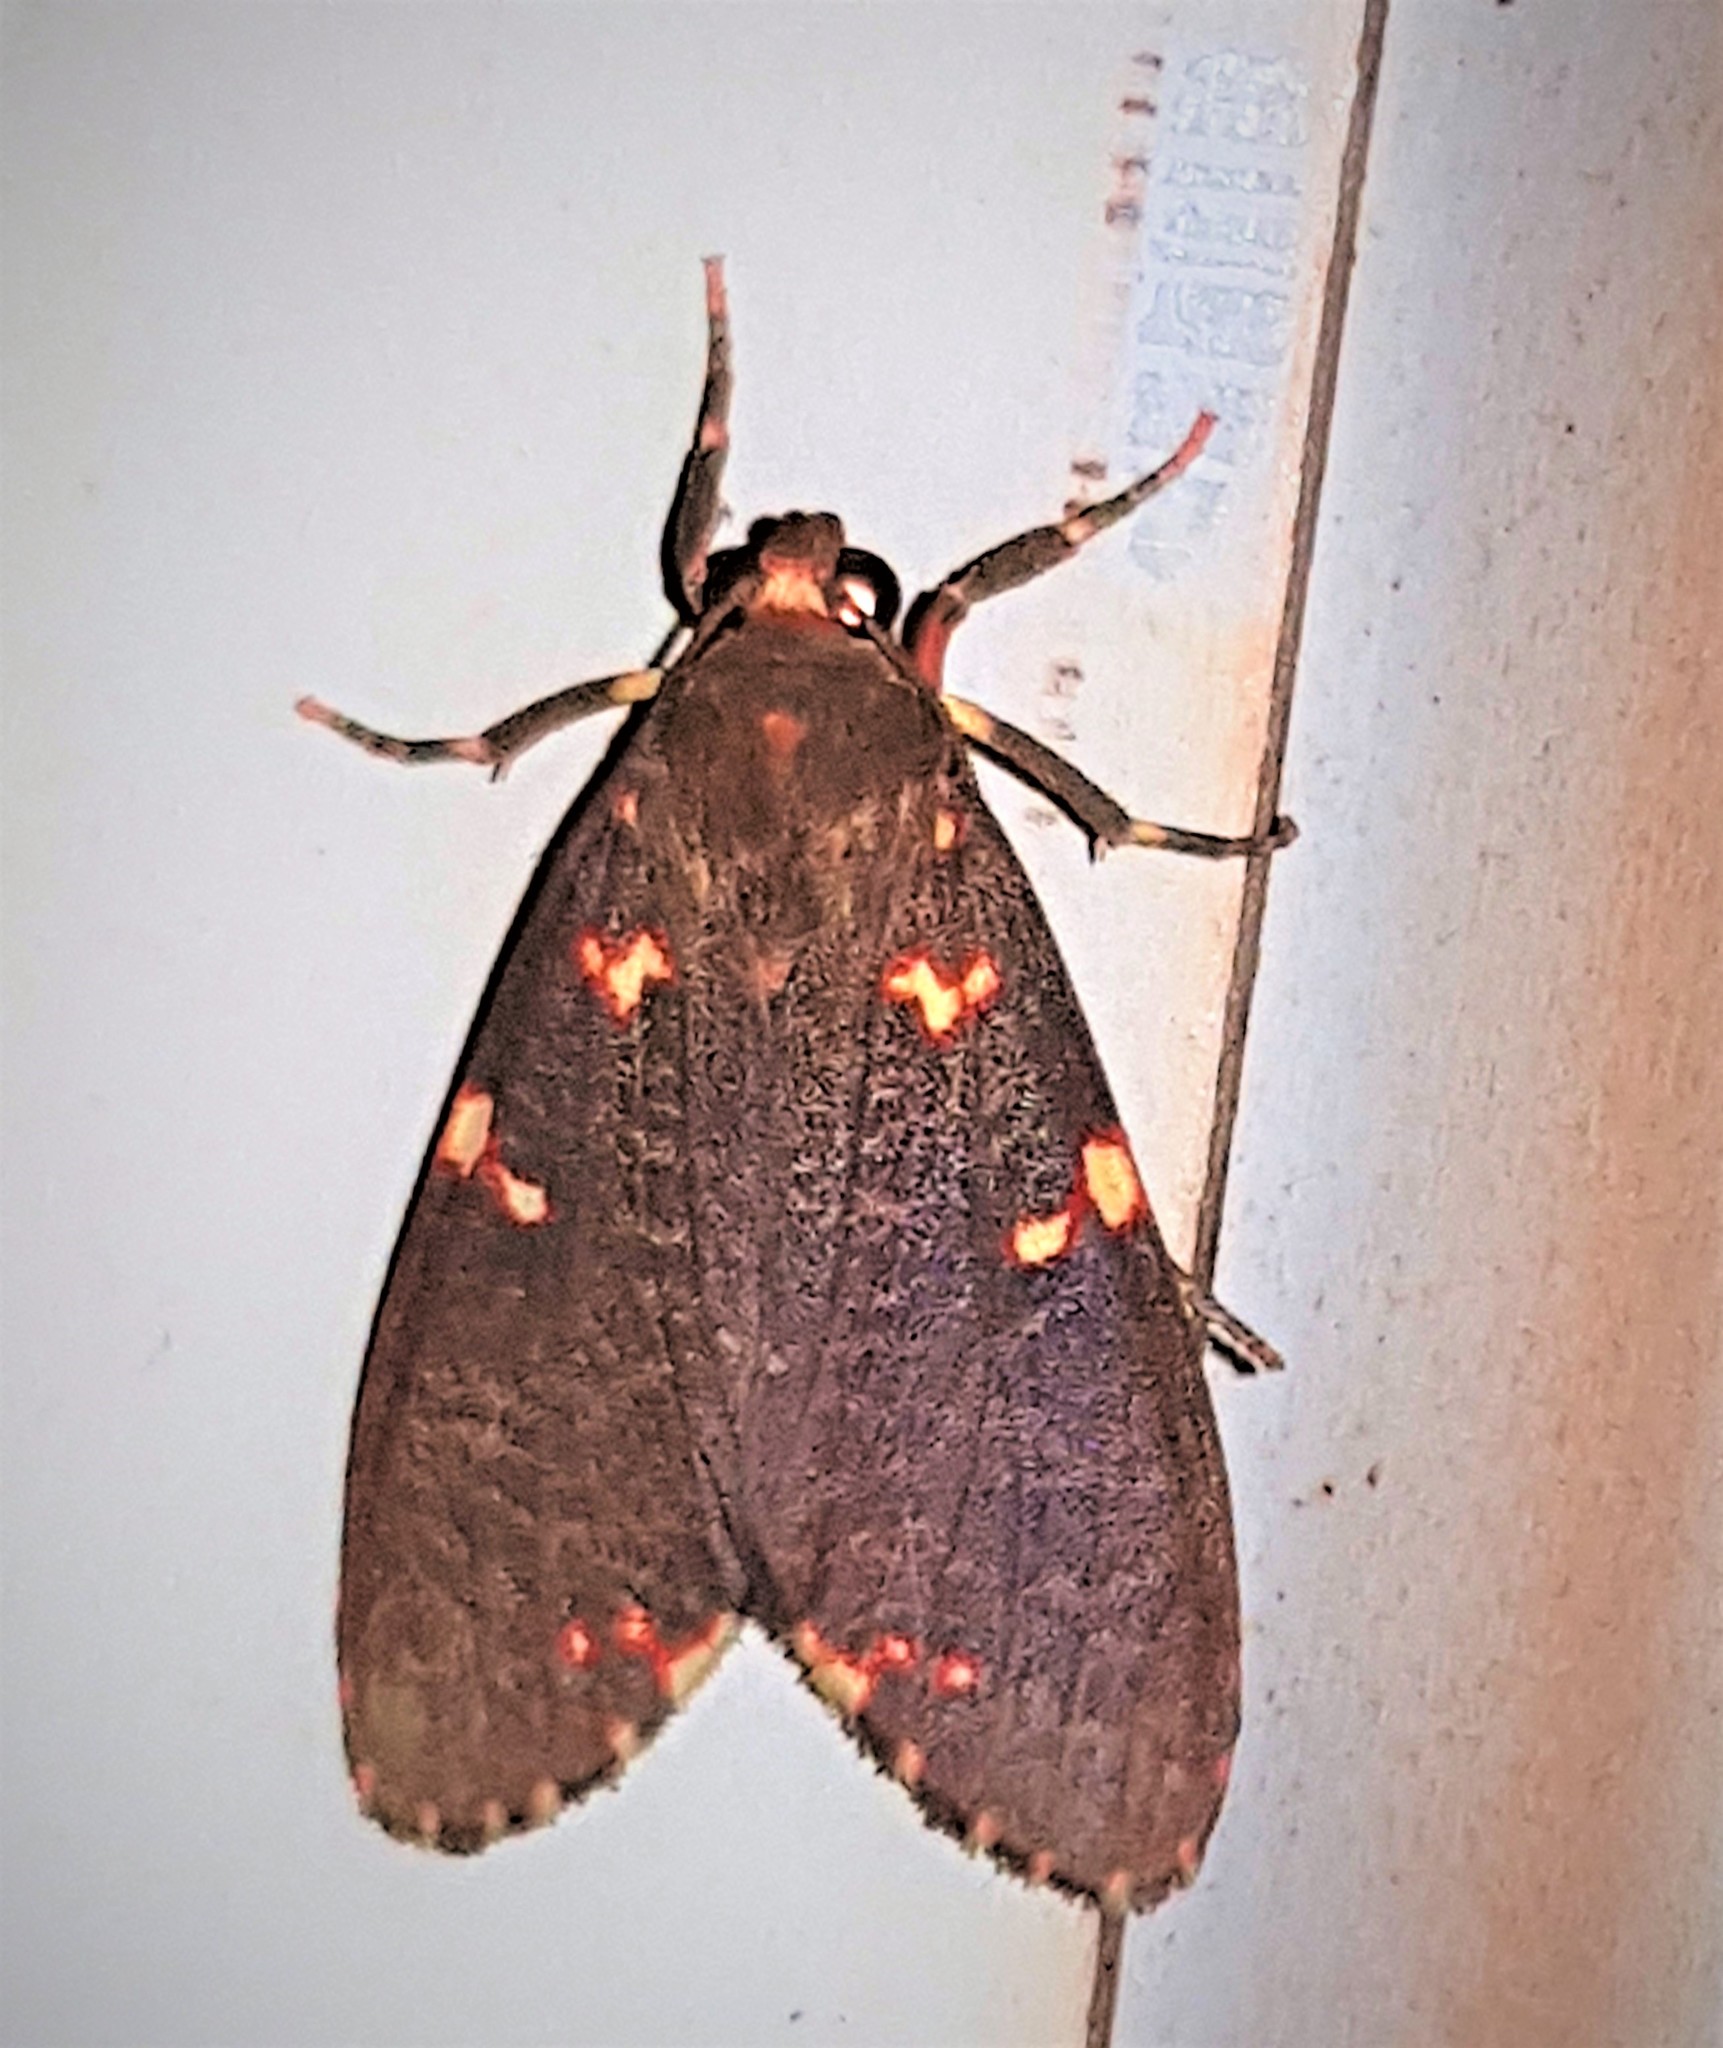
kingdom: Animalia
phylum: Arthropoda
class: Insecta
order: Lepidoptera
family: Erebidae
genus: Coiffaitarctia
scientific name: Coiffaitarctia steniptera
